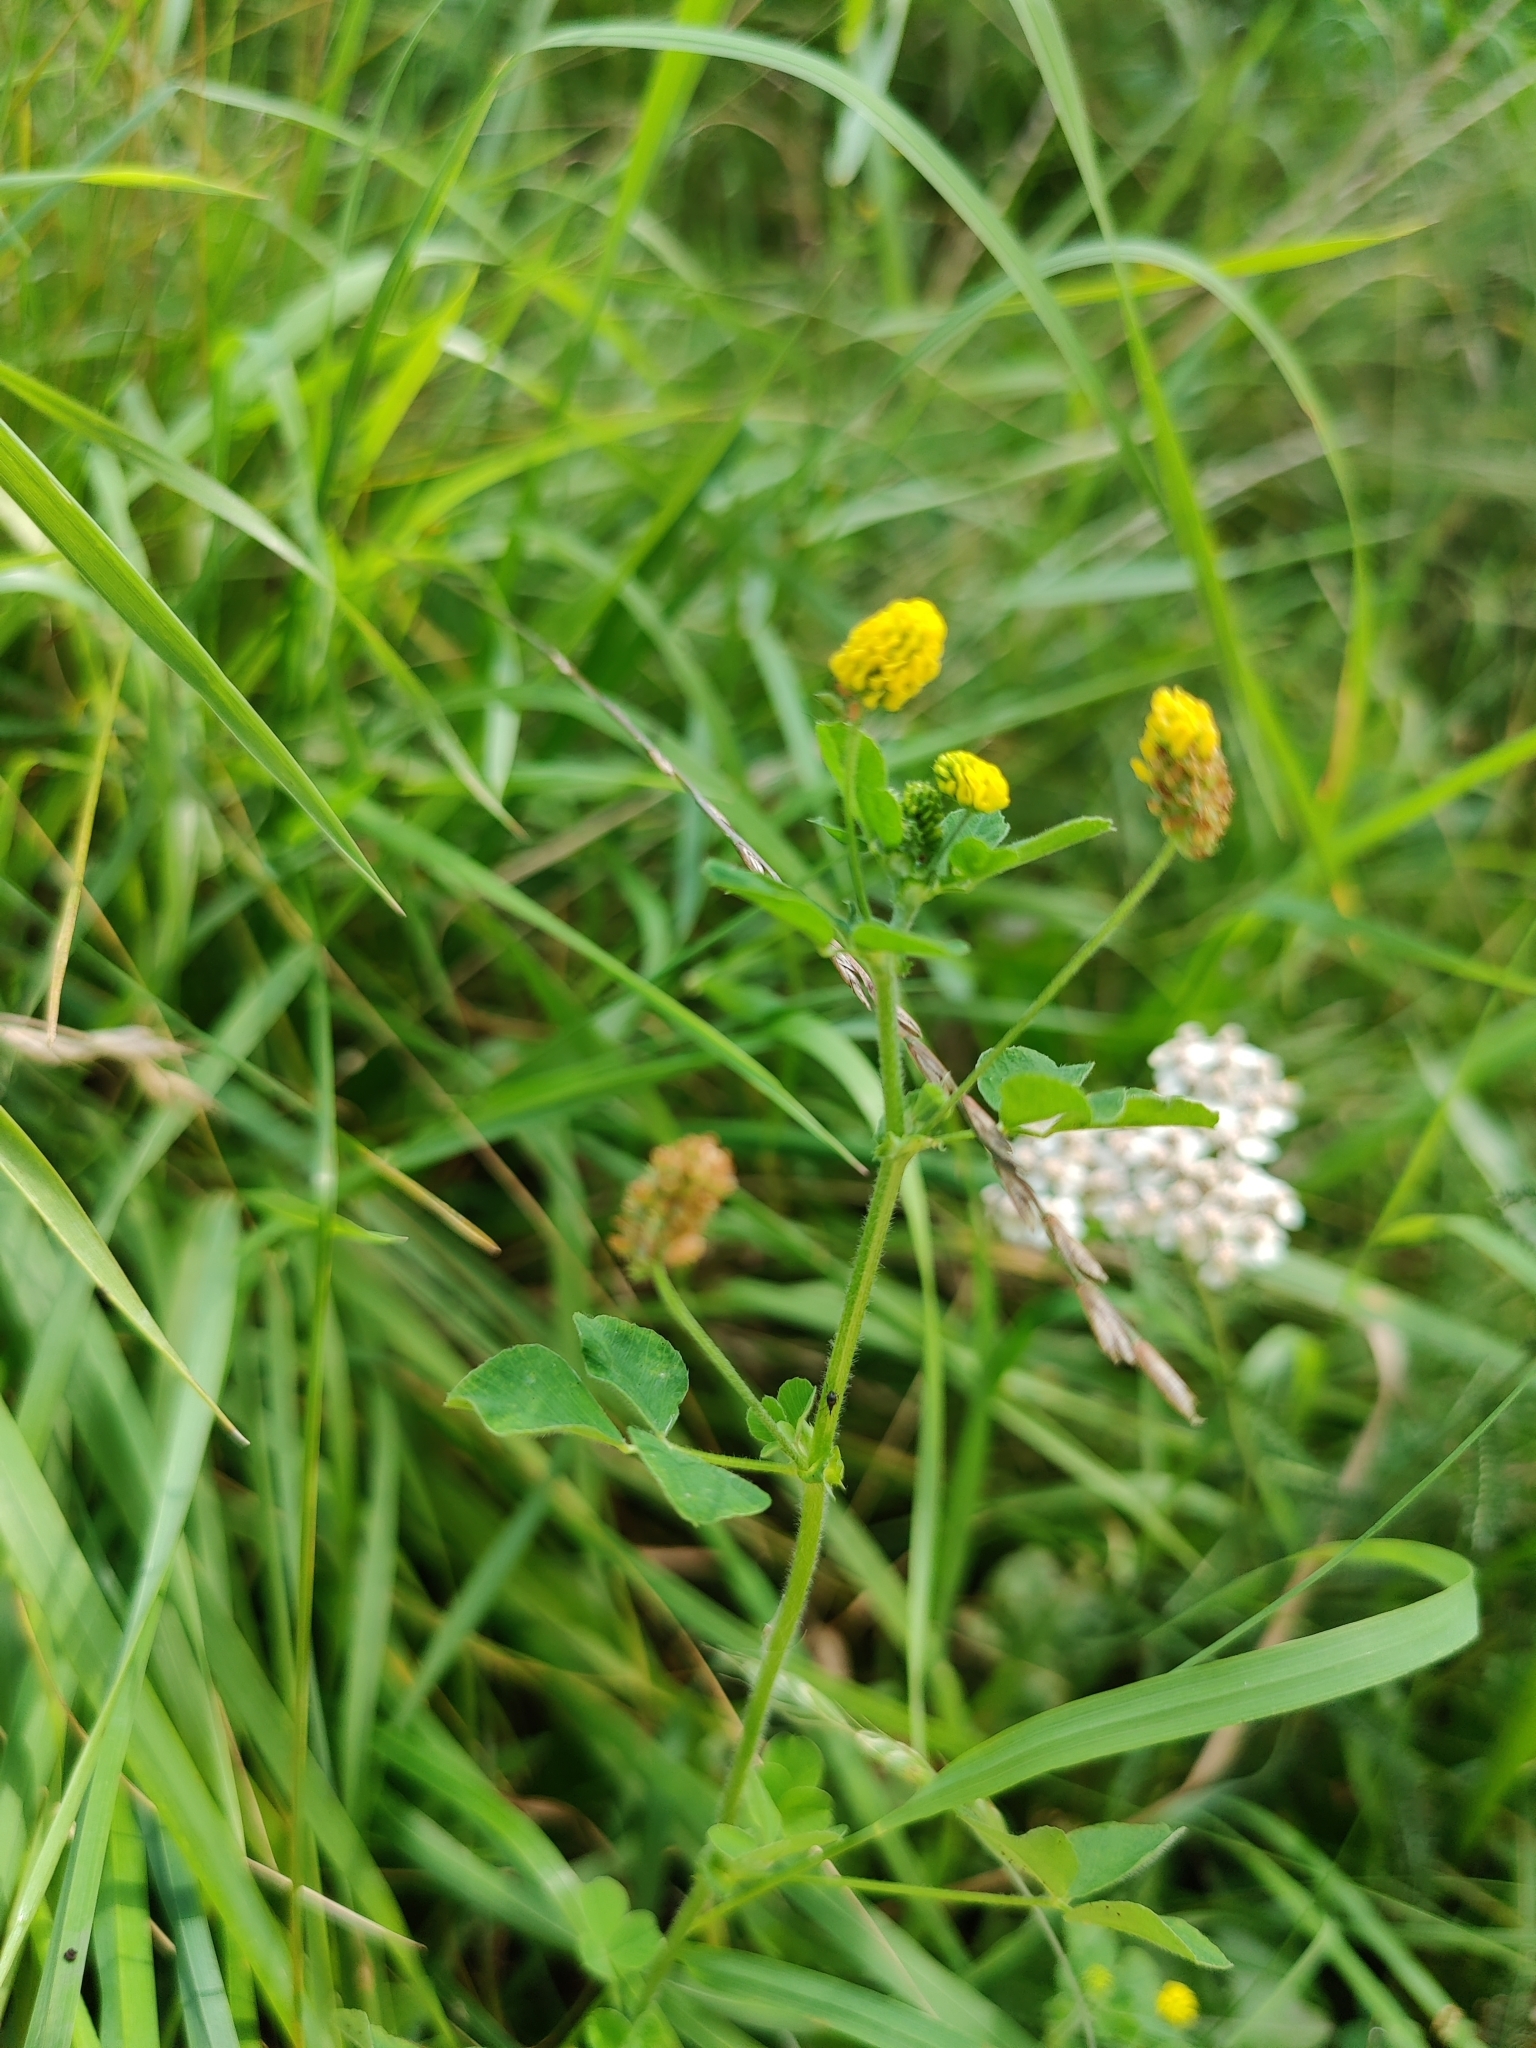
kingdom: Plantae
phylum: Tracheophyta
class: Magnoliopsida
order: Fabales
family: Fabaceae
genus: Medicago
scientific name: Medicago lupulina
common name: Black medick
